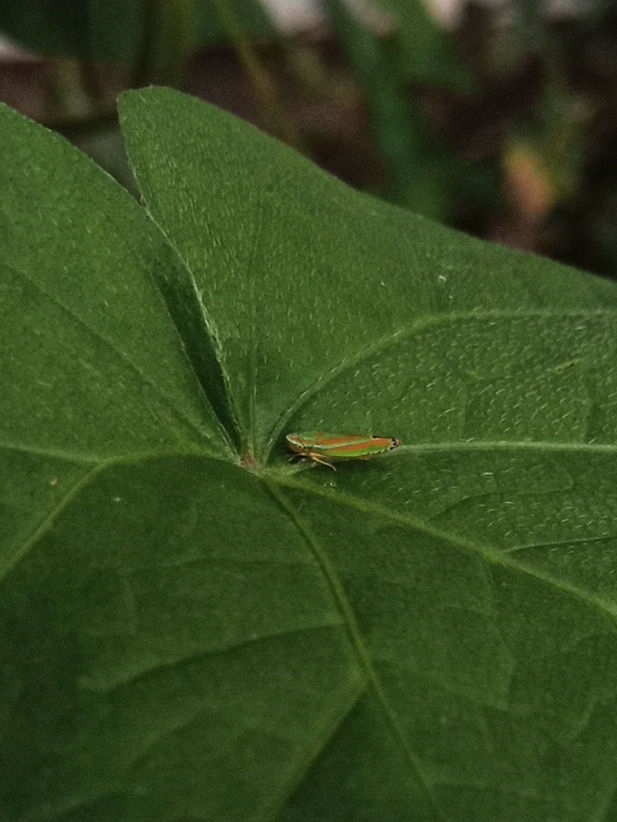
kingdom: Animalia
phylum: Arthropoda
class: Insecta
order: Hemiptera
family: Cicadellidae
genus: Graphocephala
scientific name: Graphocephala versuta
